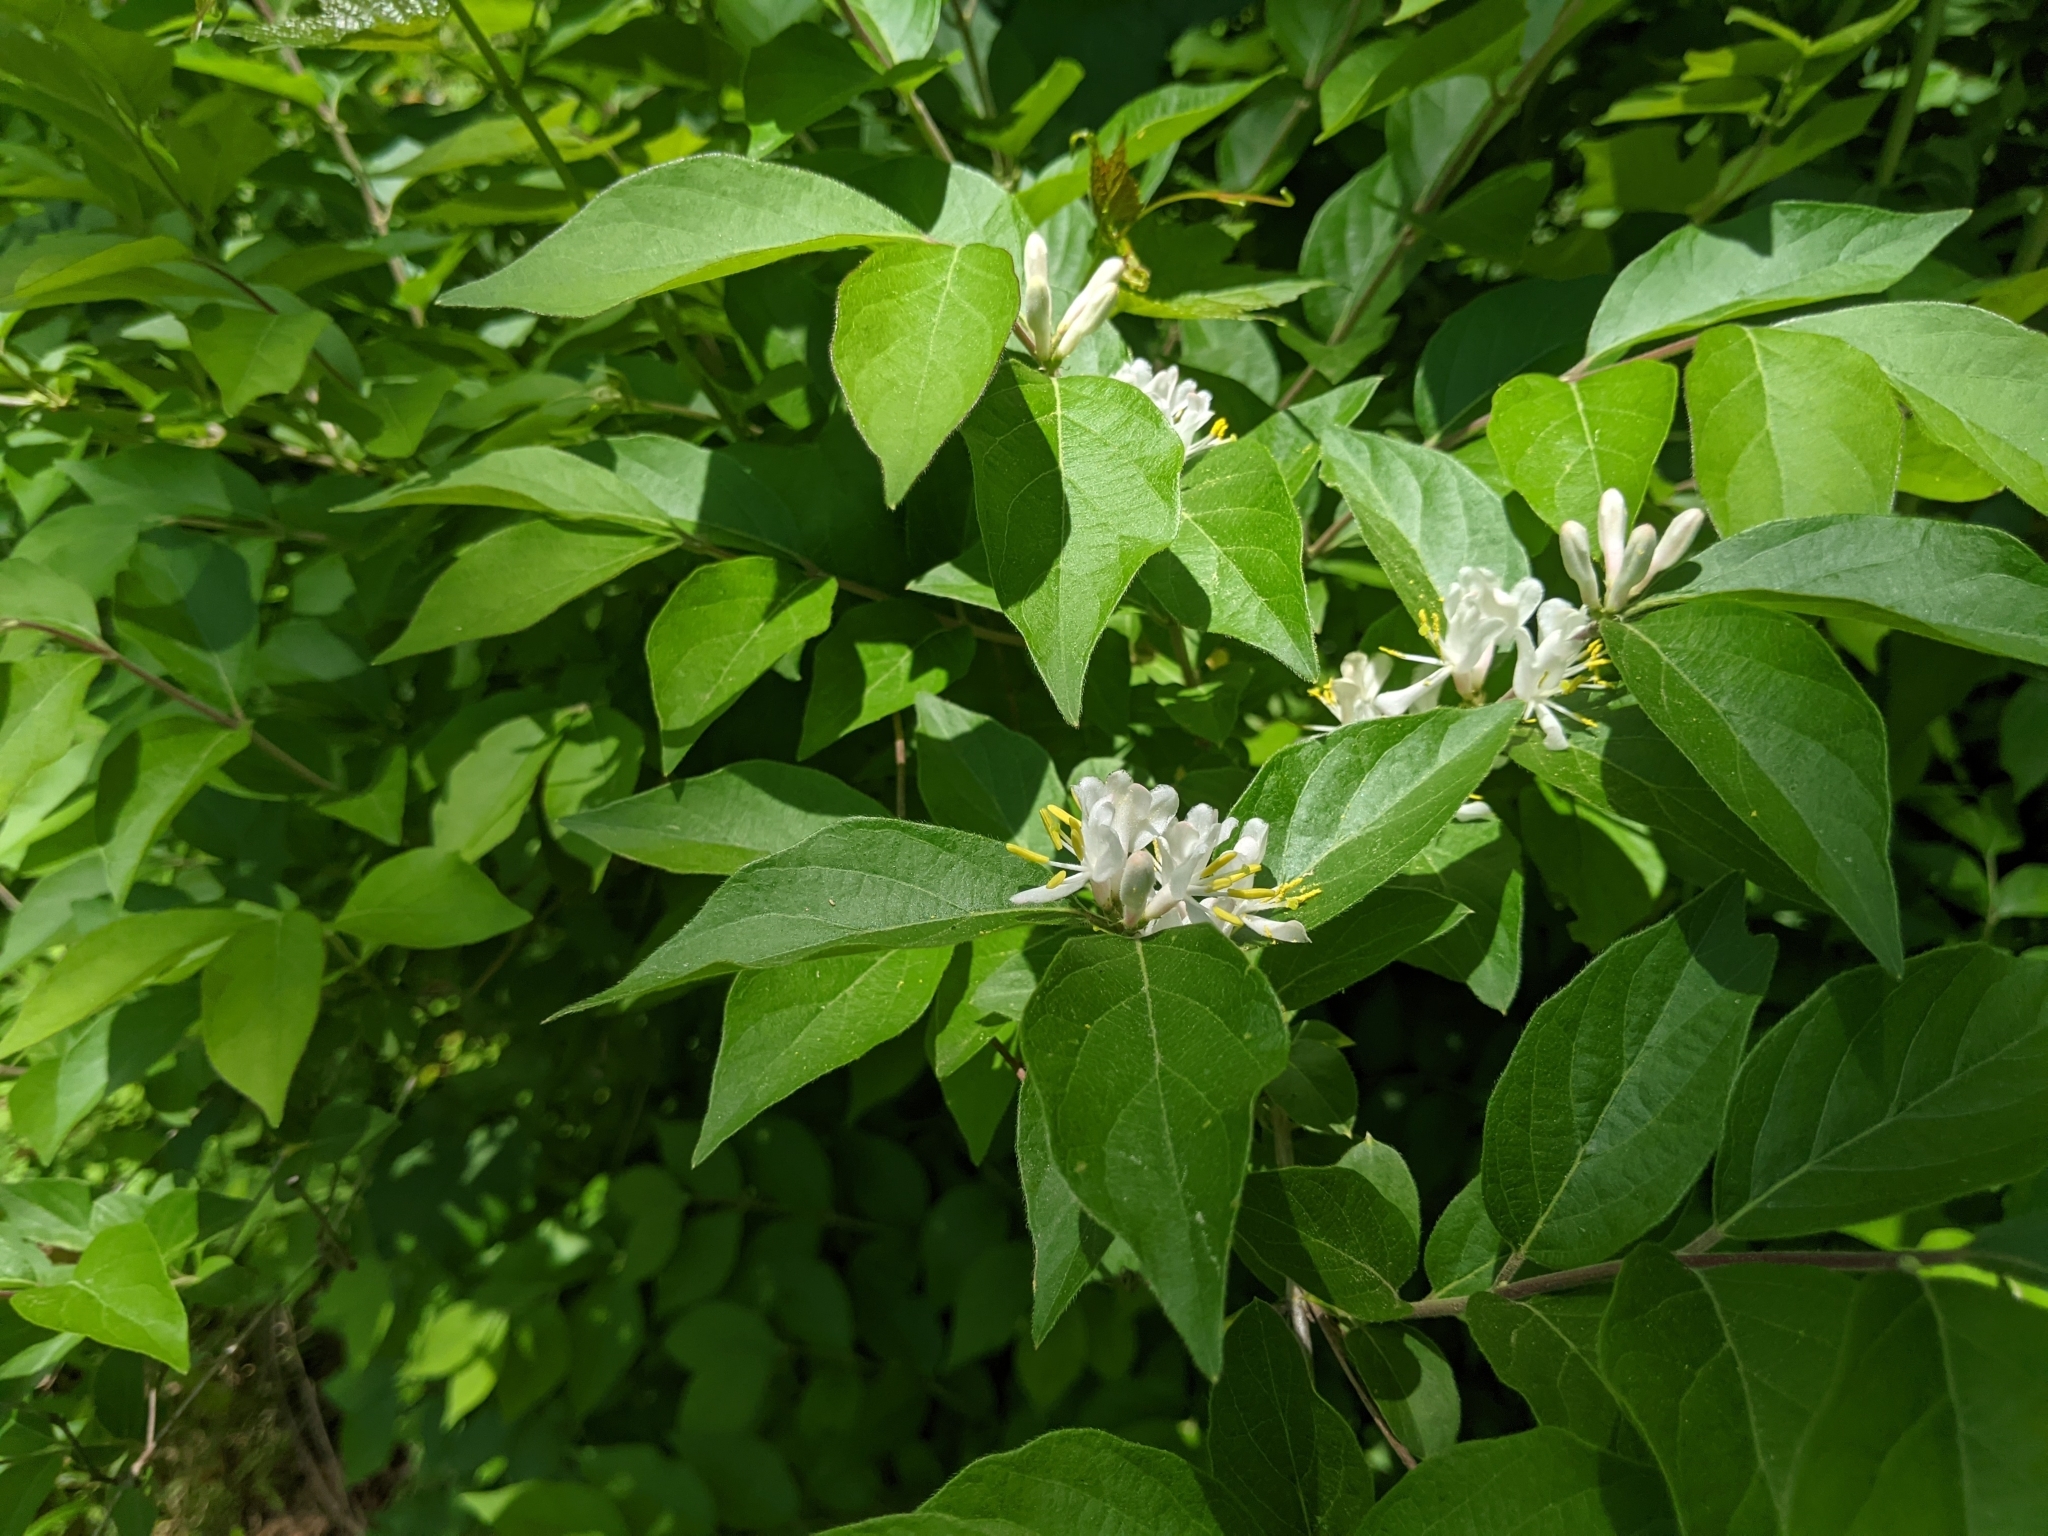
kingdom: Plantae
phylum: Tracheophyta
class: Magnoliopsida
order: Dipsacales
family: Caprifoliaceae
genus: Lonicera
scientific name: Lonicera maackii
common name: Amur honeysuckle
